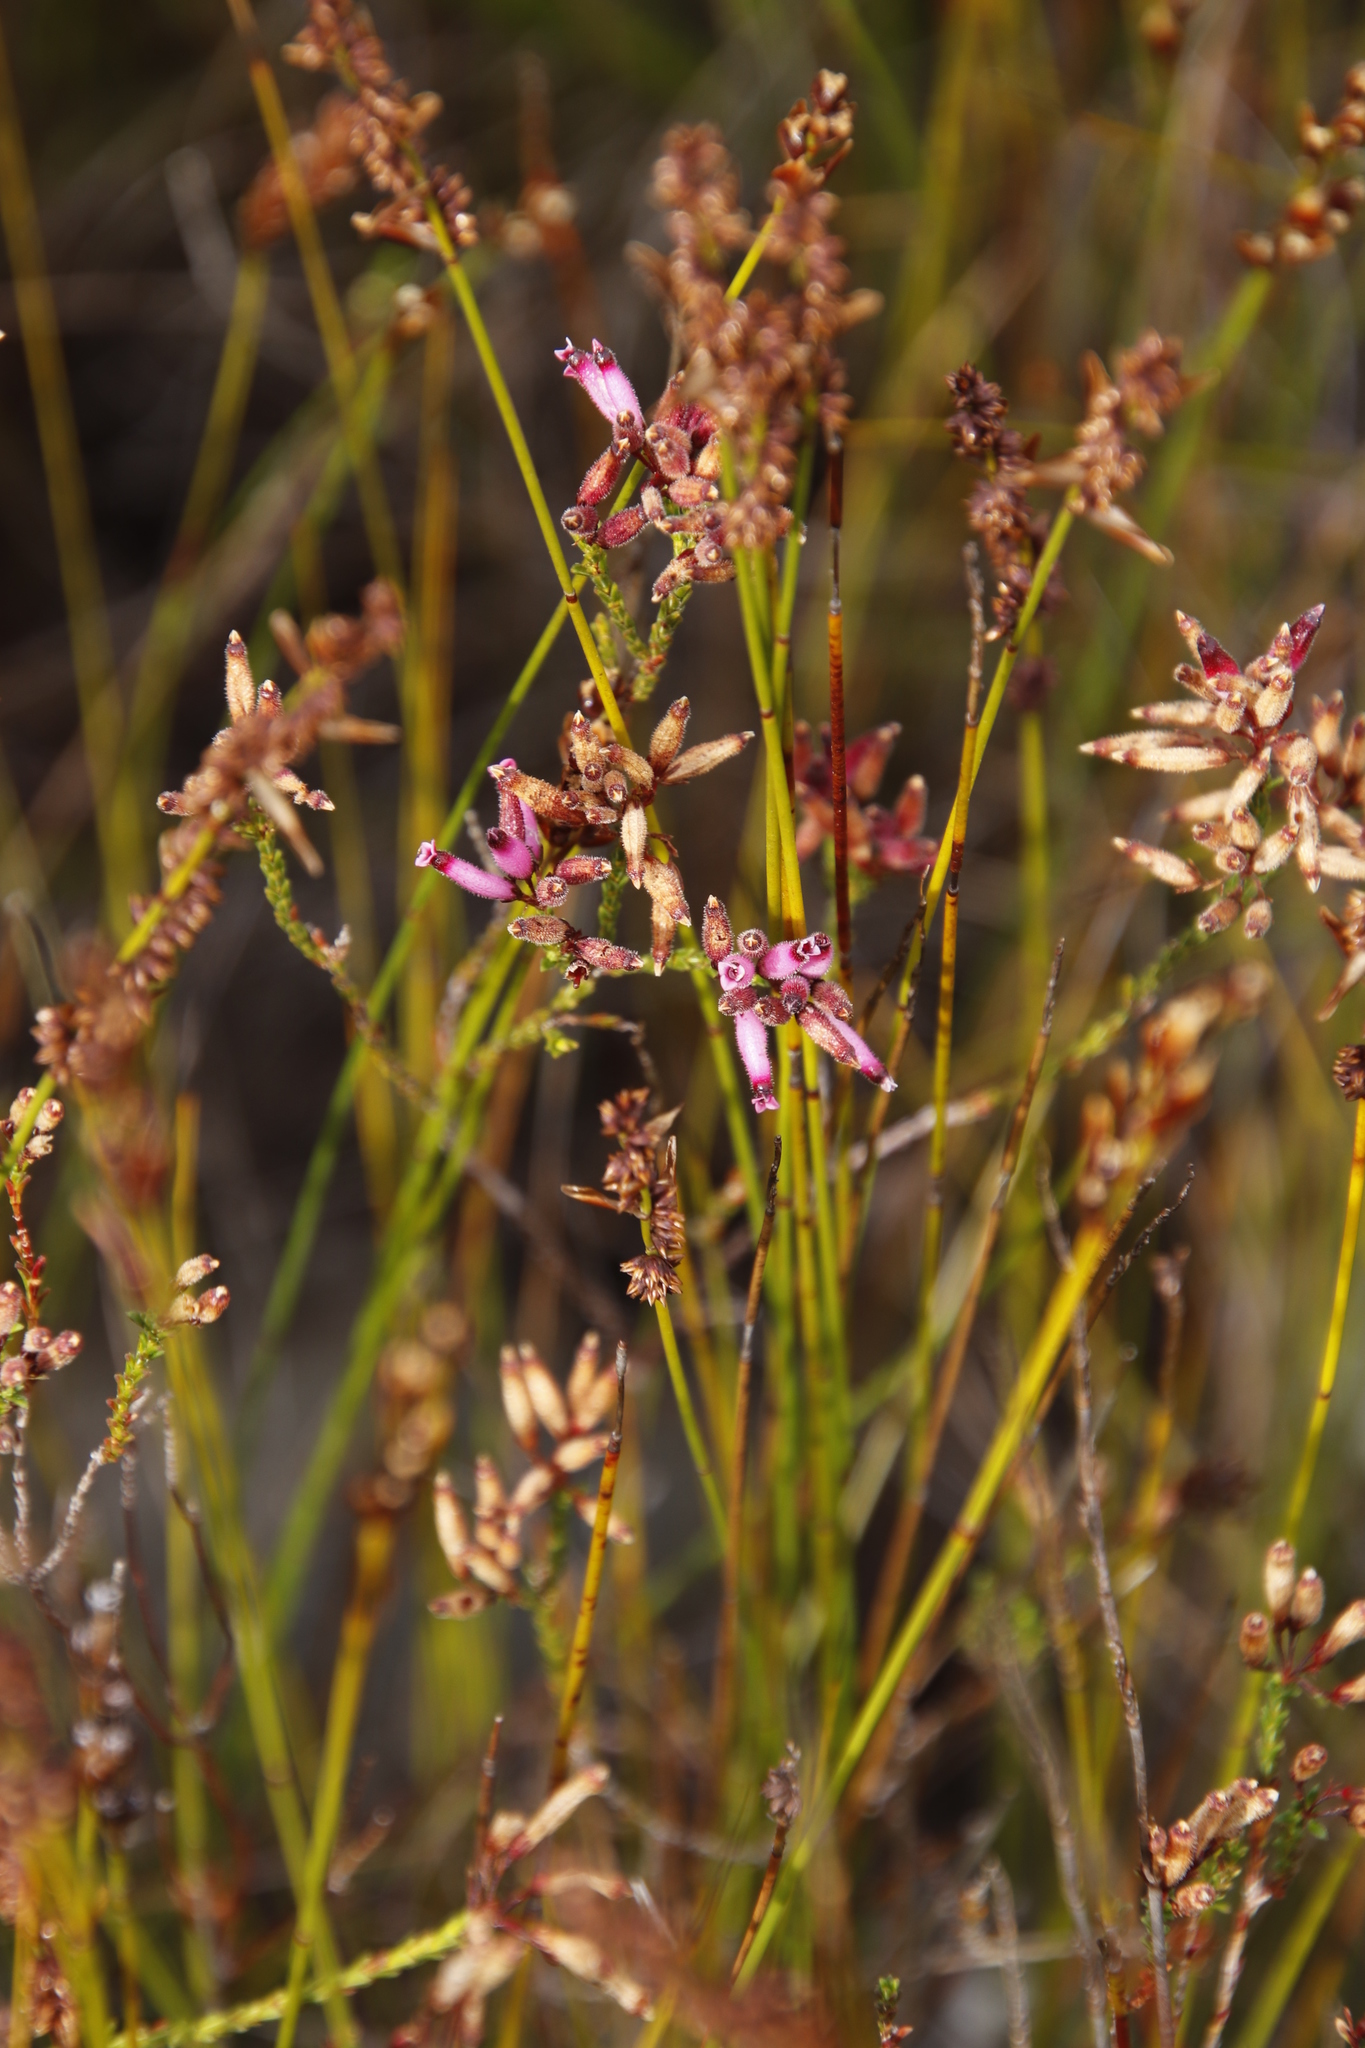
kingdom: Plantae
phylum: Tracheophyta
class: Magnoliopsida
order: Ericales
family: Ericaceae
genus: Erica
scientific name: Erica cristata
